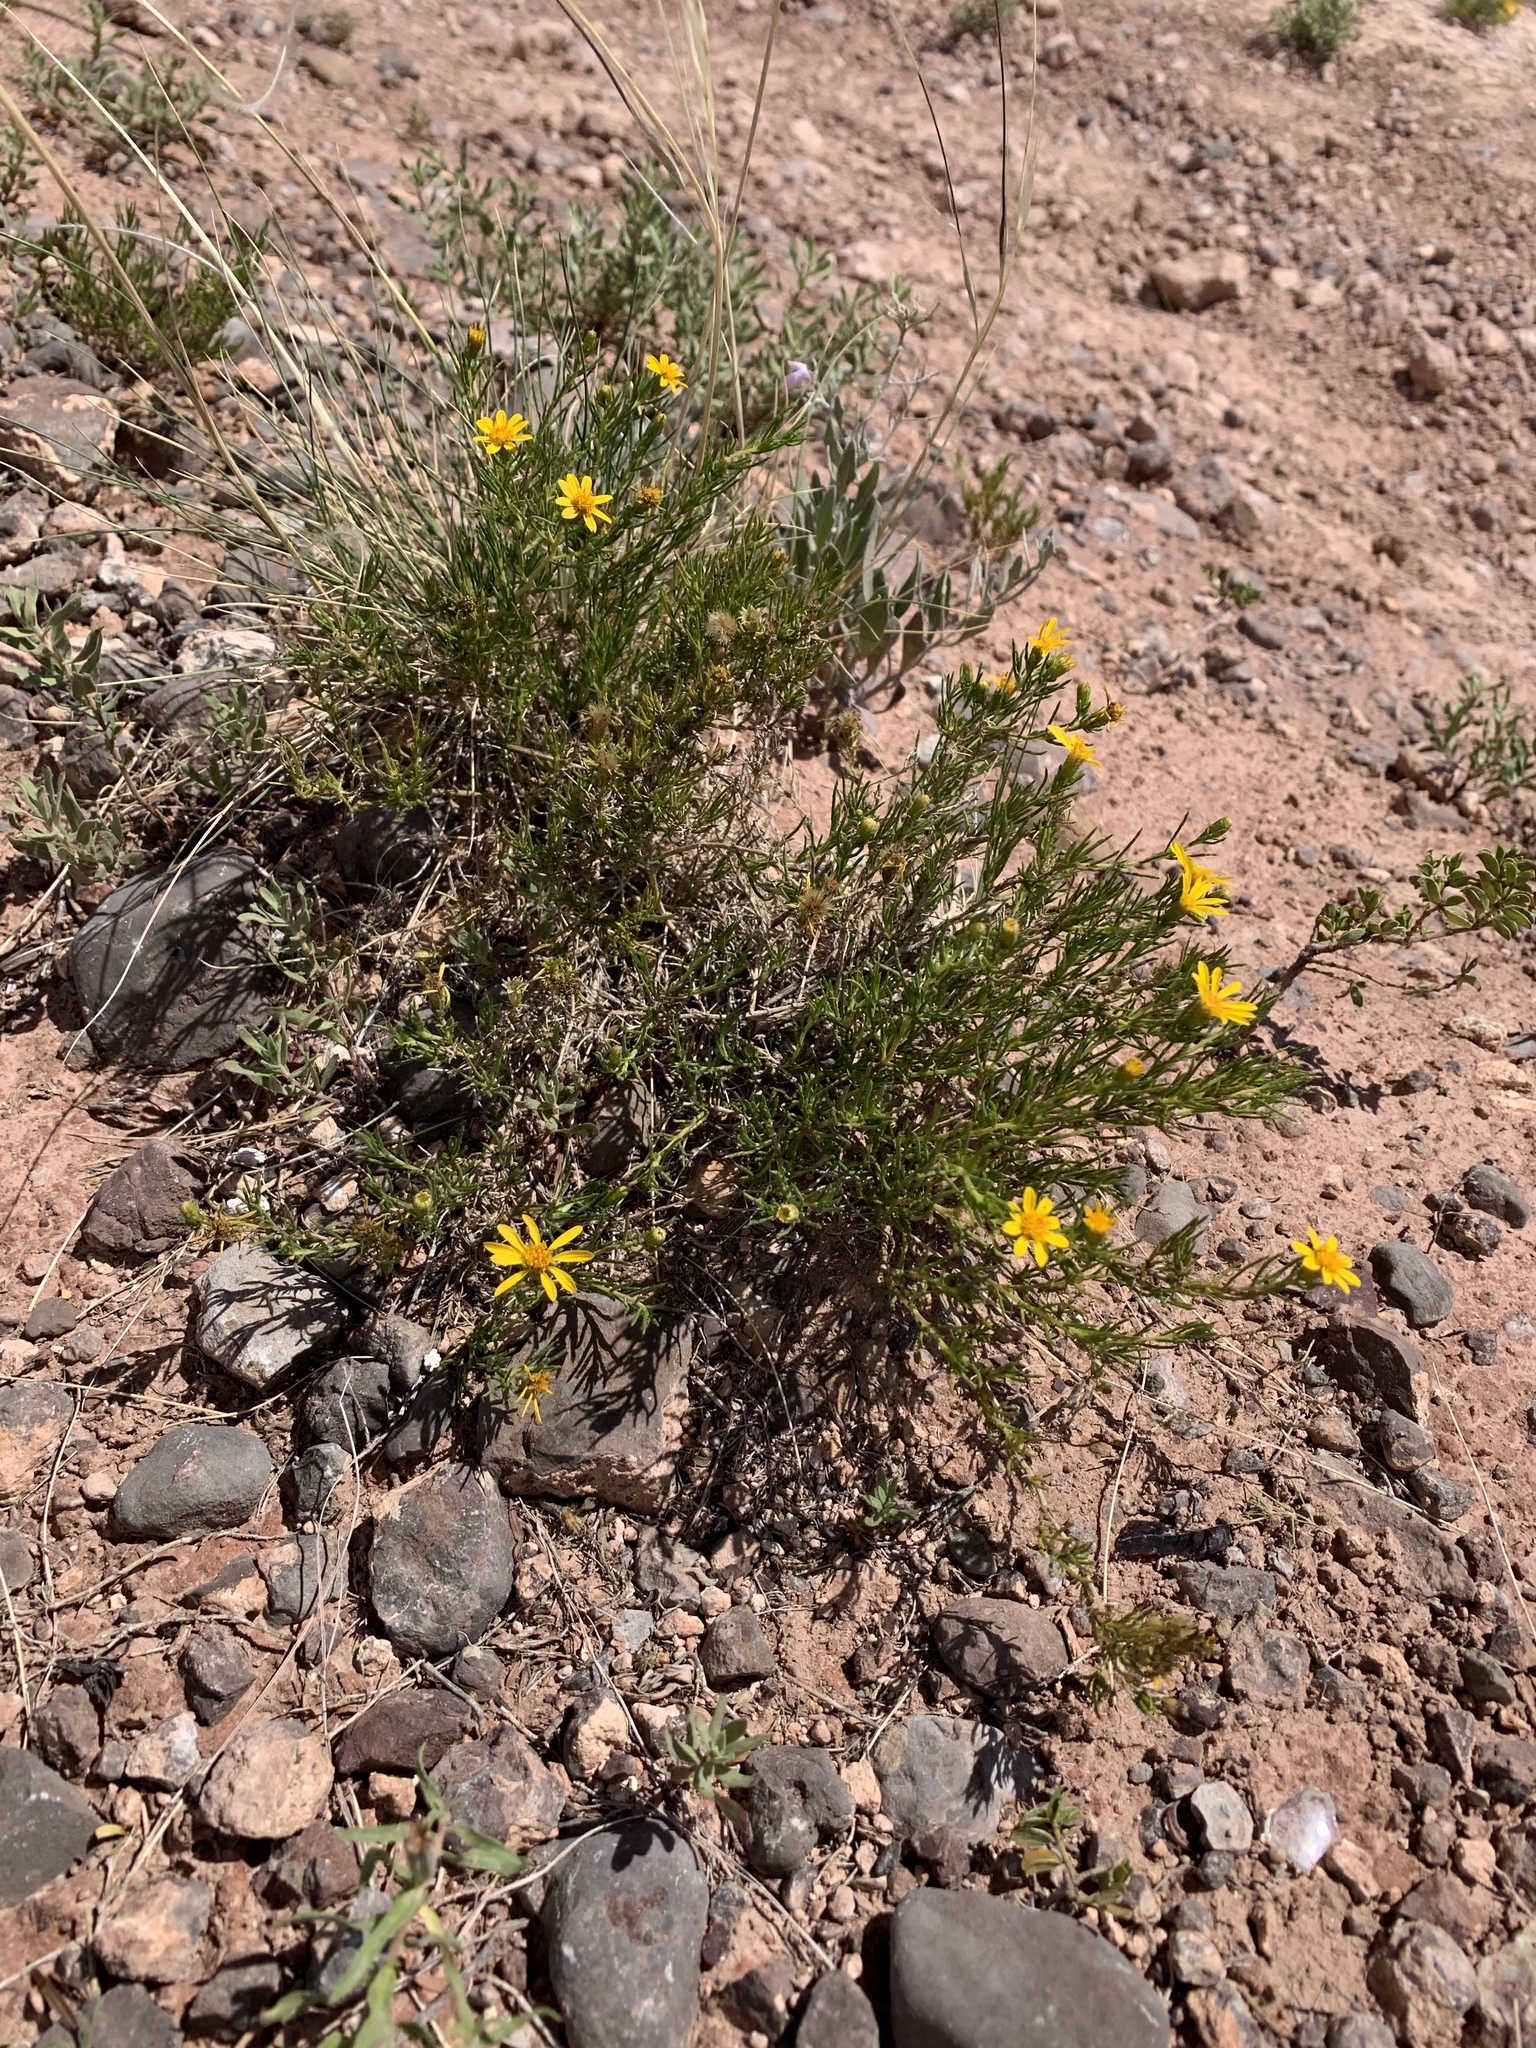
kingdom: Plantae
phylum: Tracheophyta
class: Magnoliopsida
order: Asterales
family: Asteraceae
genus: Thymophylla
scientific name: Thymophylla acerosa
